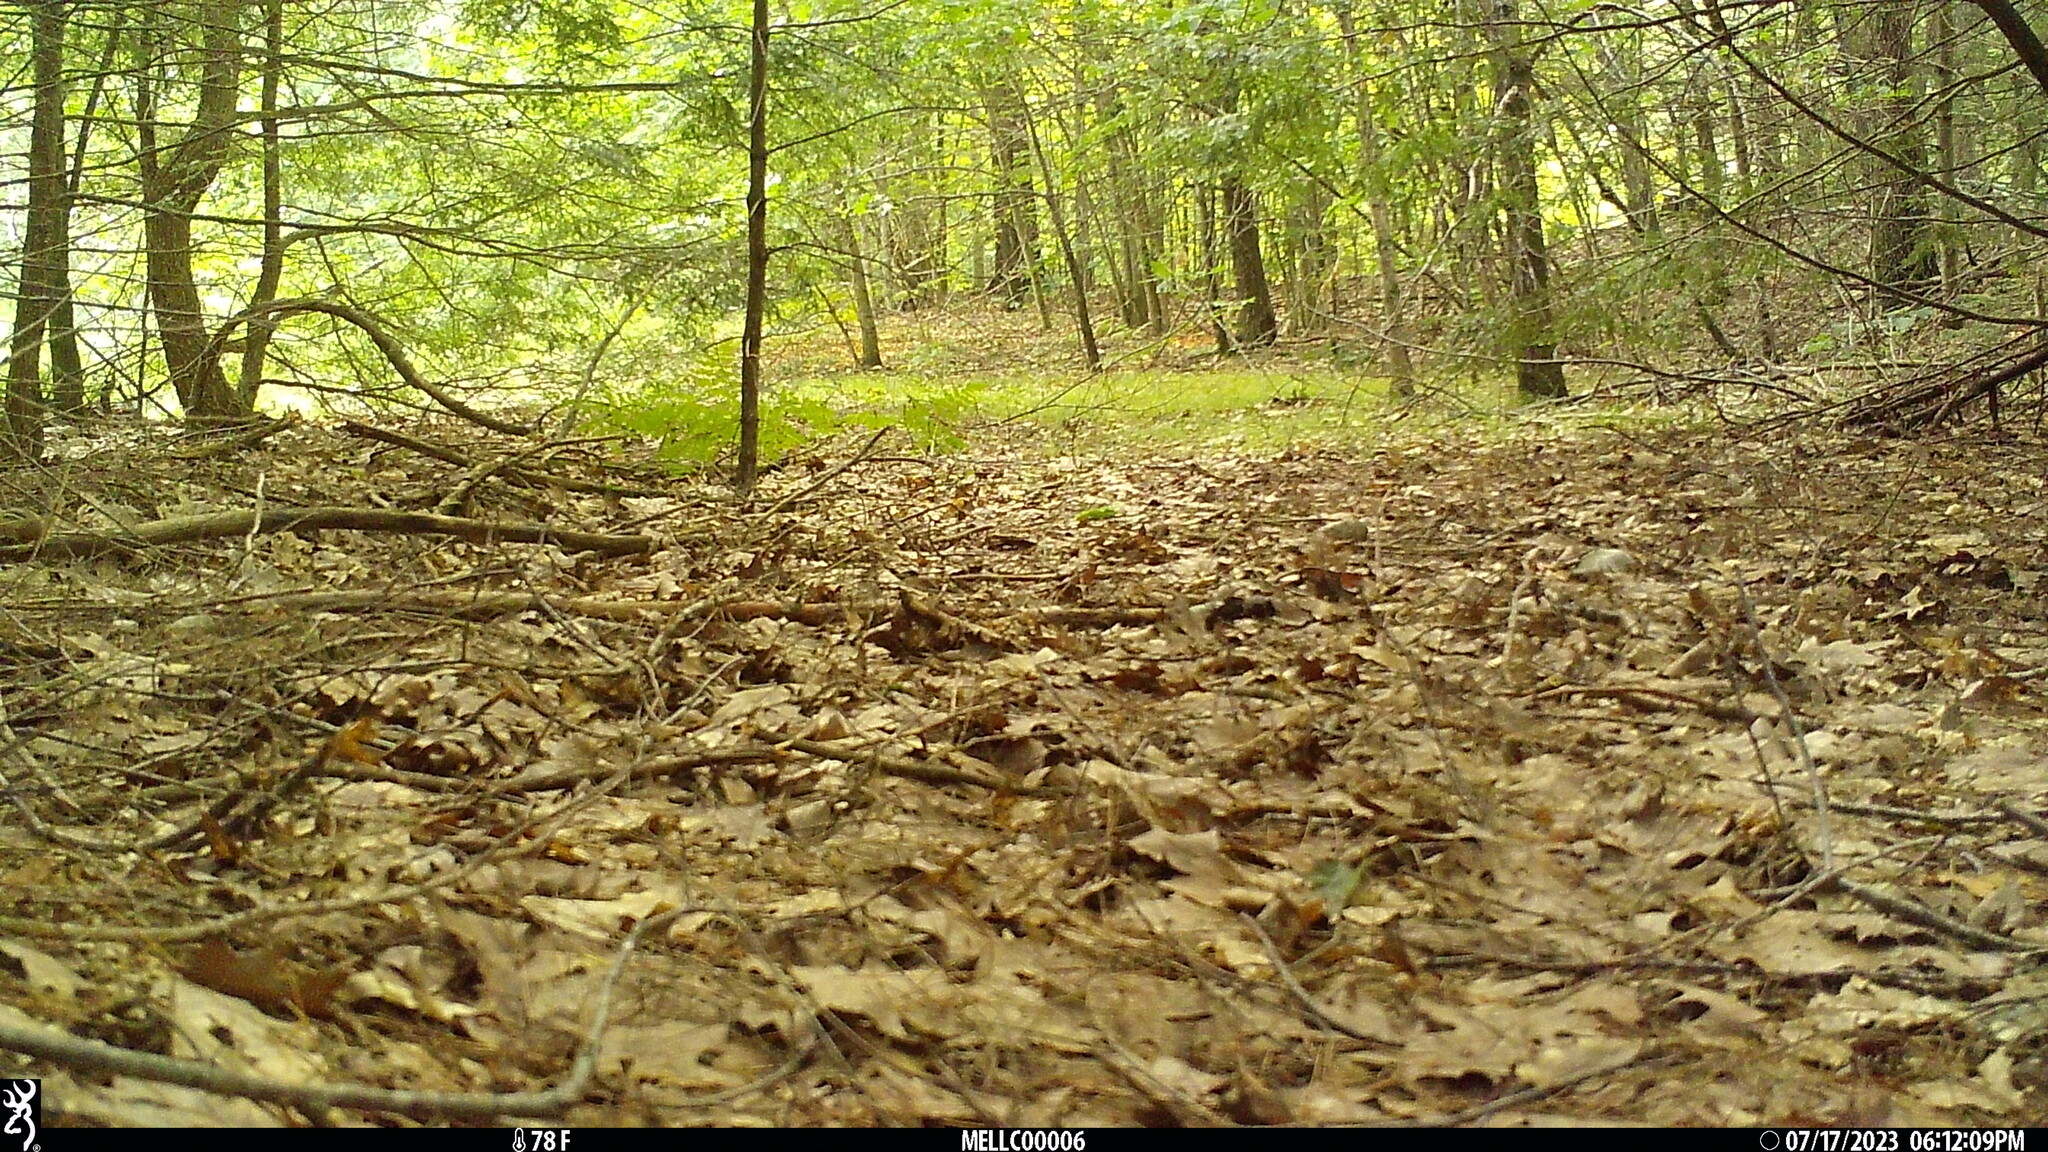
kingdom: Animalia
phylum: Chordata
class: Mammalia
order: Rodentia
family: Sciuridae
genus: Tamias
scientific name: Tamias striatus
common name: Eastern chipmunk
